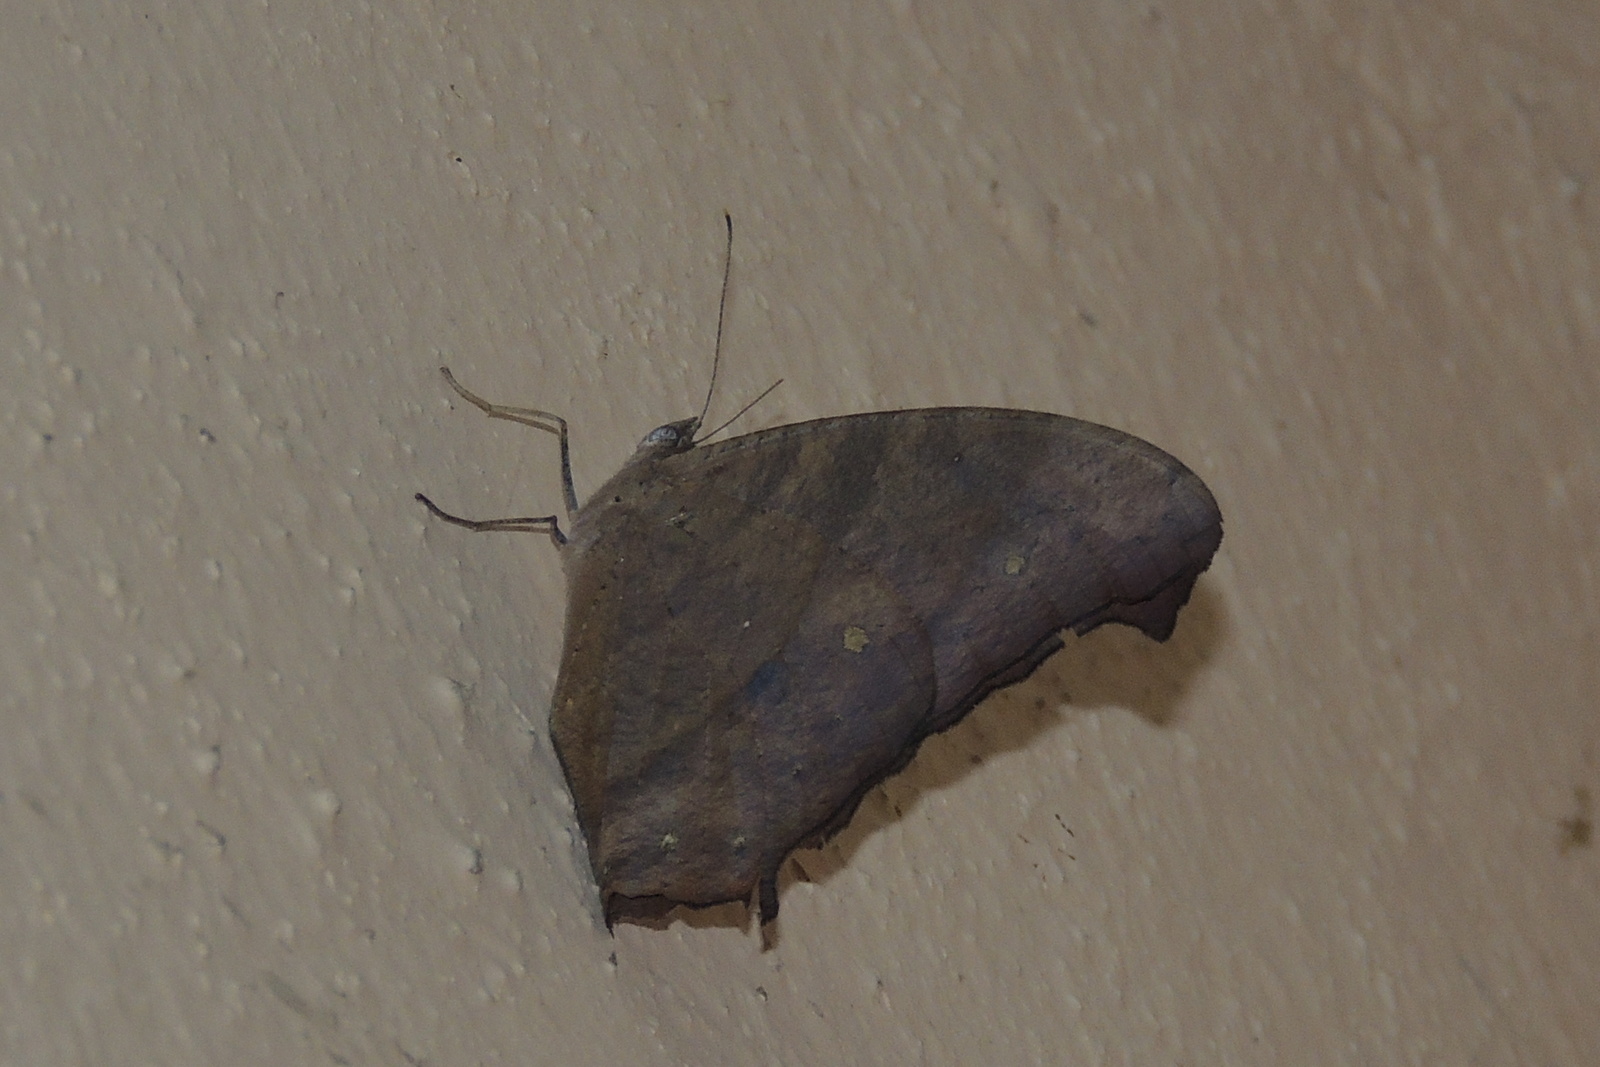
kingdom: Animalia
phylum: Arthropoda
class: Insecta
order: Lepidoptera
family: Nymphalidae
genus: Melanitis
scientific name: Melanitis leda
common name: Twilight brown
